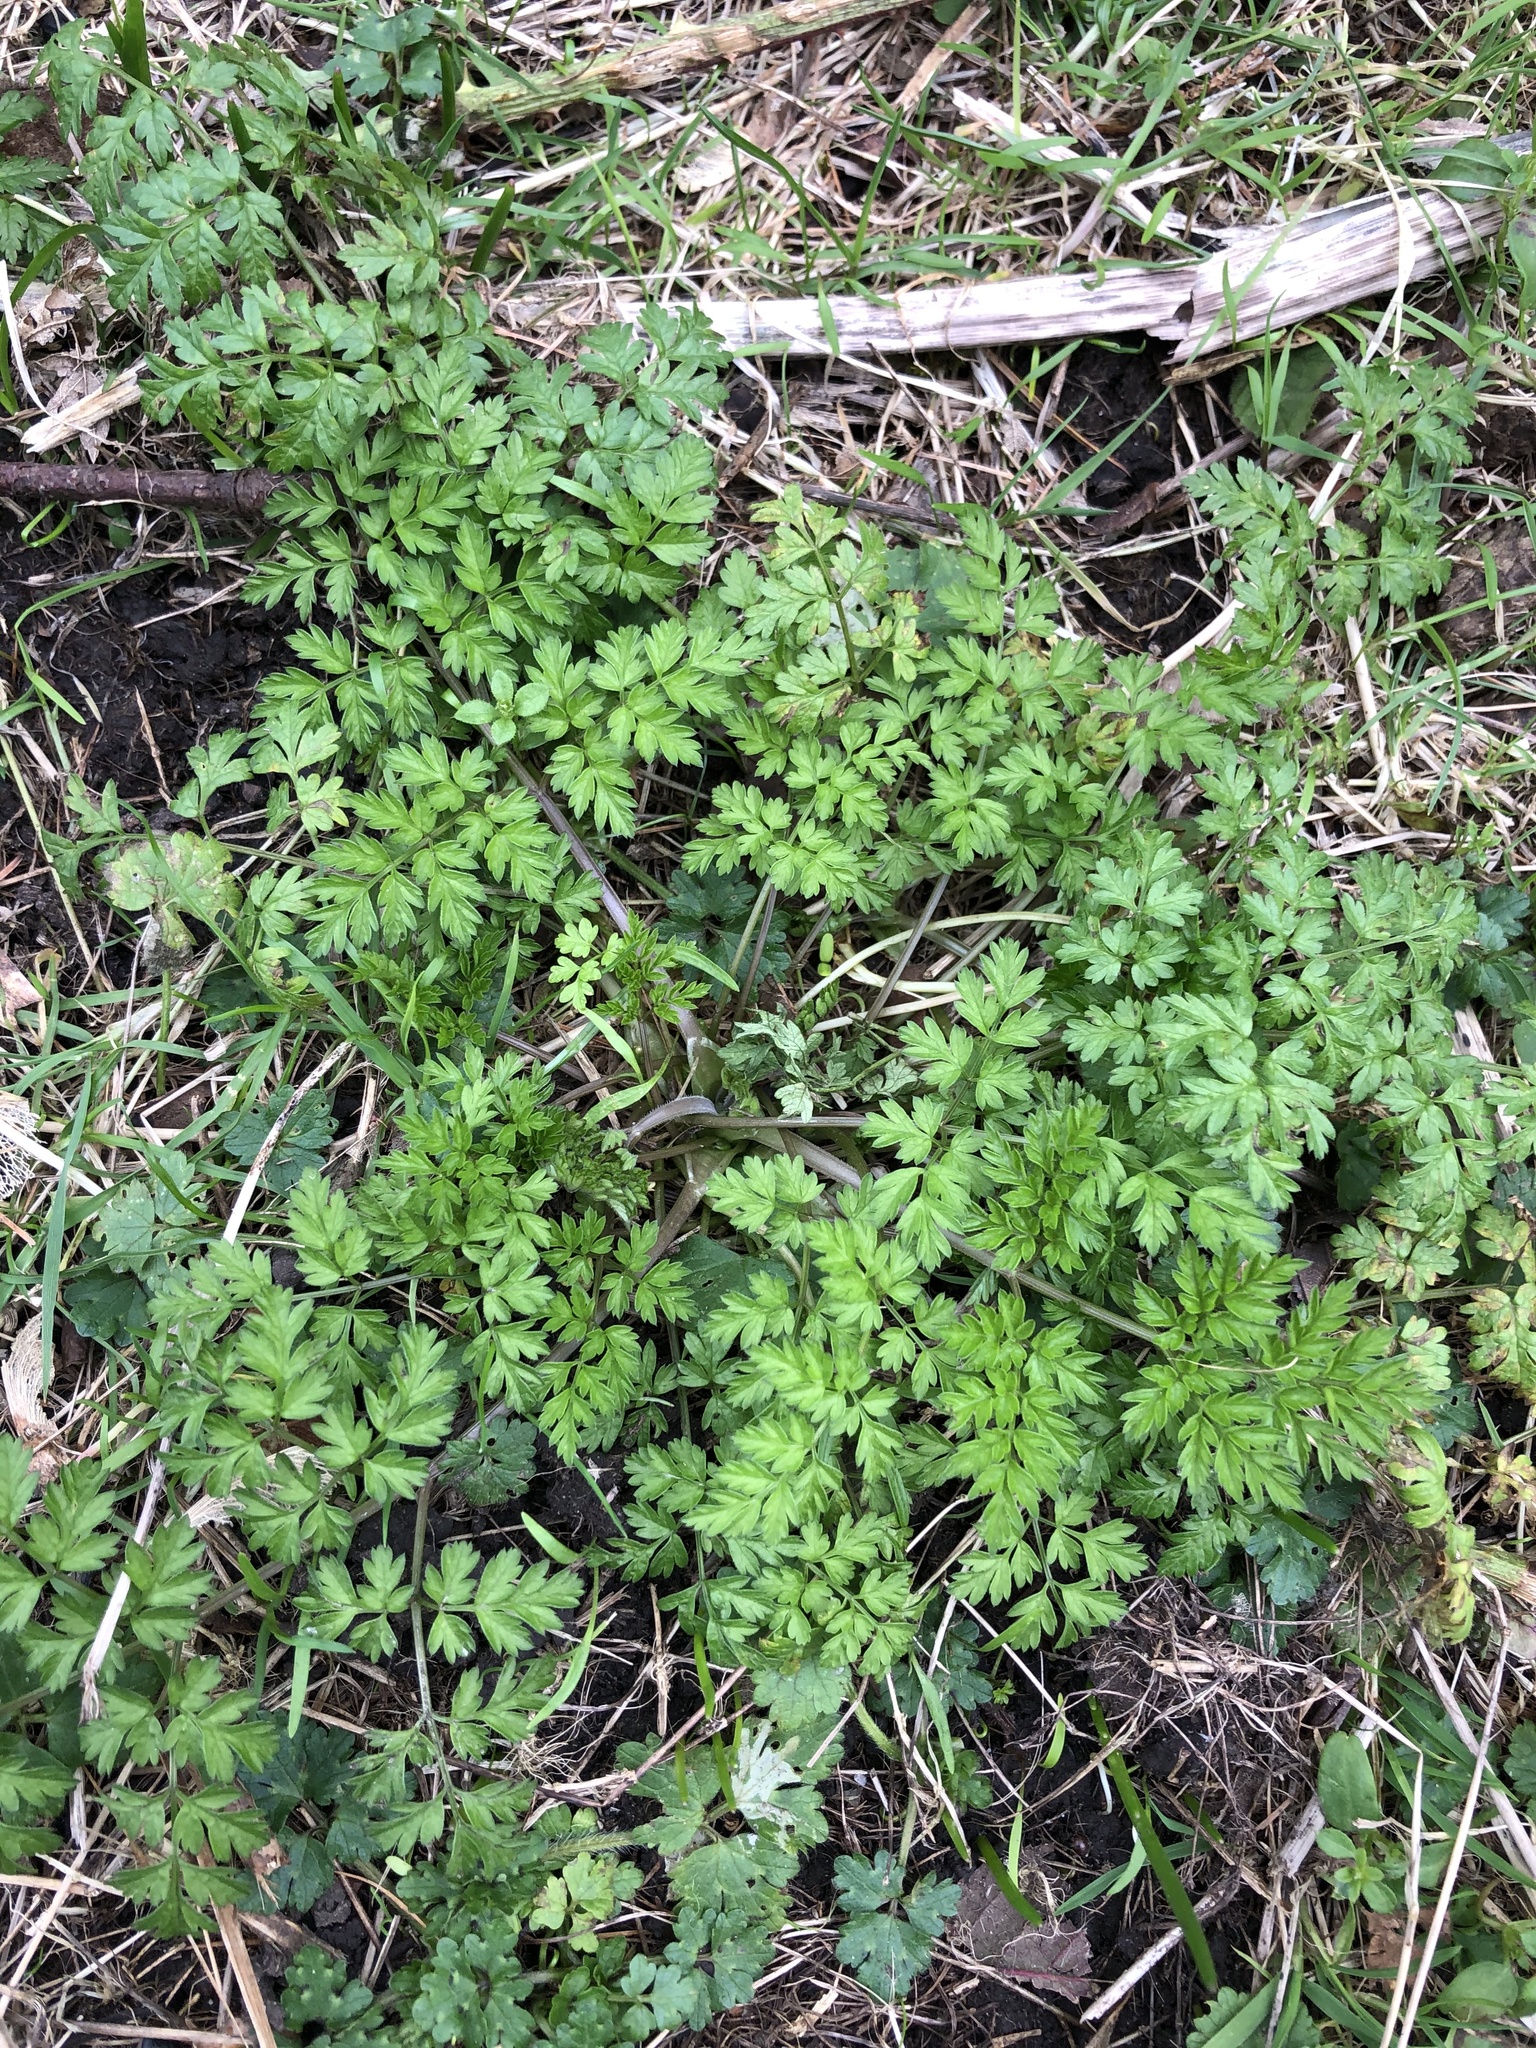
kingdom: Plantae
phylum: Tracheophyta
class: Magnoliopsida
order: Apiales
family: Apiaceae
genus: Anthriscus
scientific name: Anthriscus sylvestris
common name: Cow parsley
